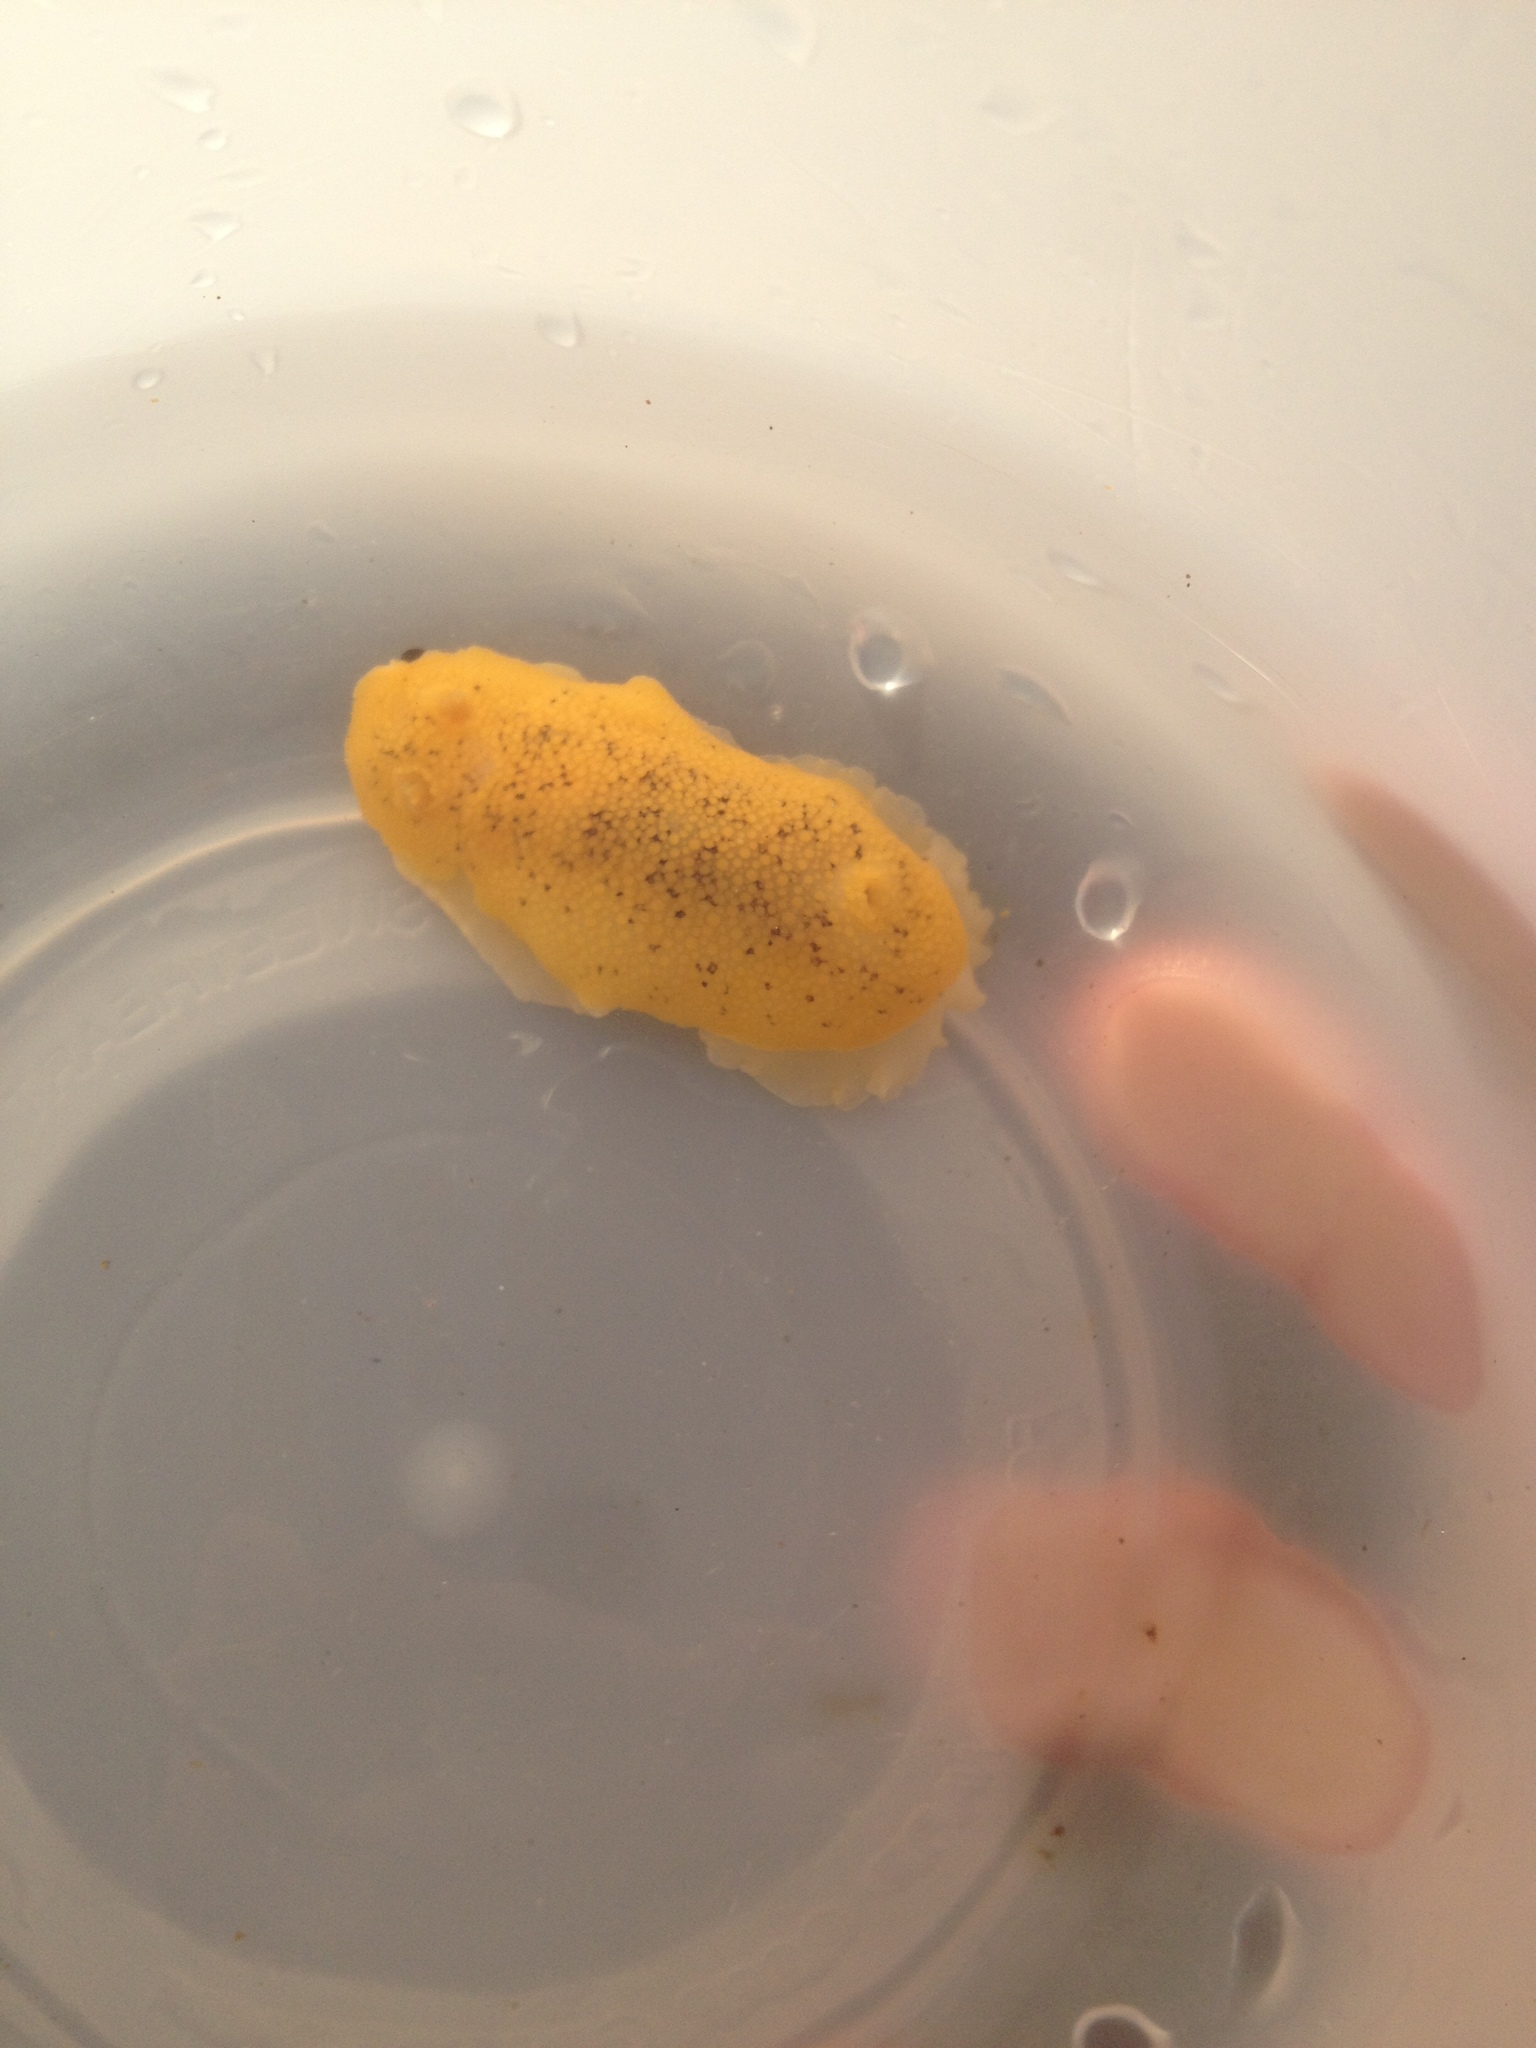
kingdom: Animalia
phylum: Mollusca
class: Gastropoda
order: Nudibranchia
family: Discodorididae
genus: Peltodoris
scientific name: Peltodoris nobilis
